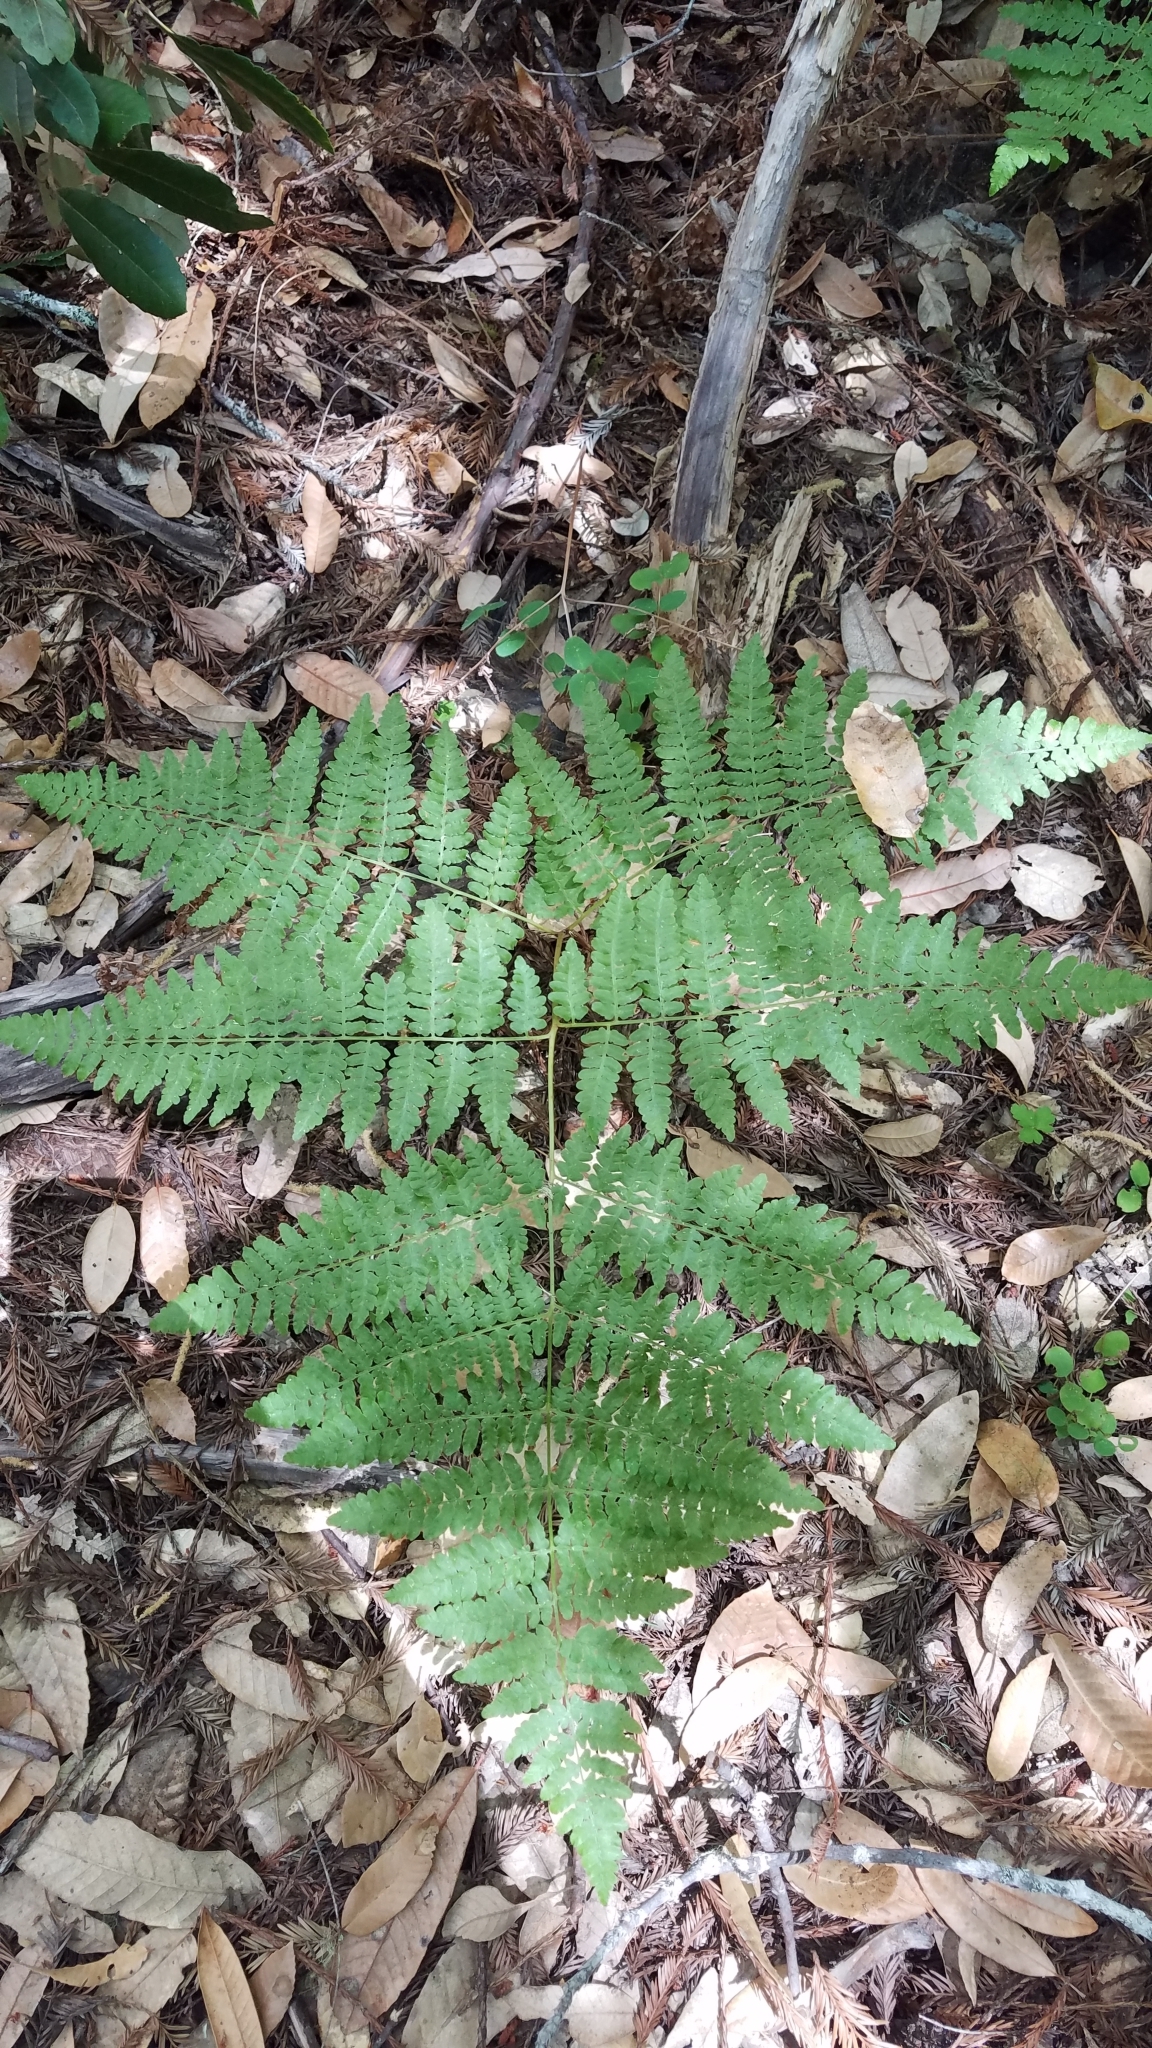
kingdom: Plantae
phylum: Tracheophyta
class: Polypodiopsida
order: Polypodiales
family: Dennstaedtiaceae
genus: Pteridium
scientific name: Pteridium aquilinum
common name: Bracken
